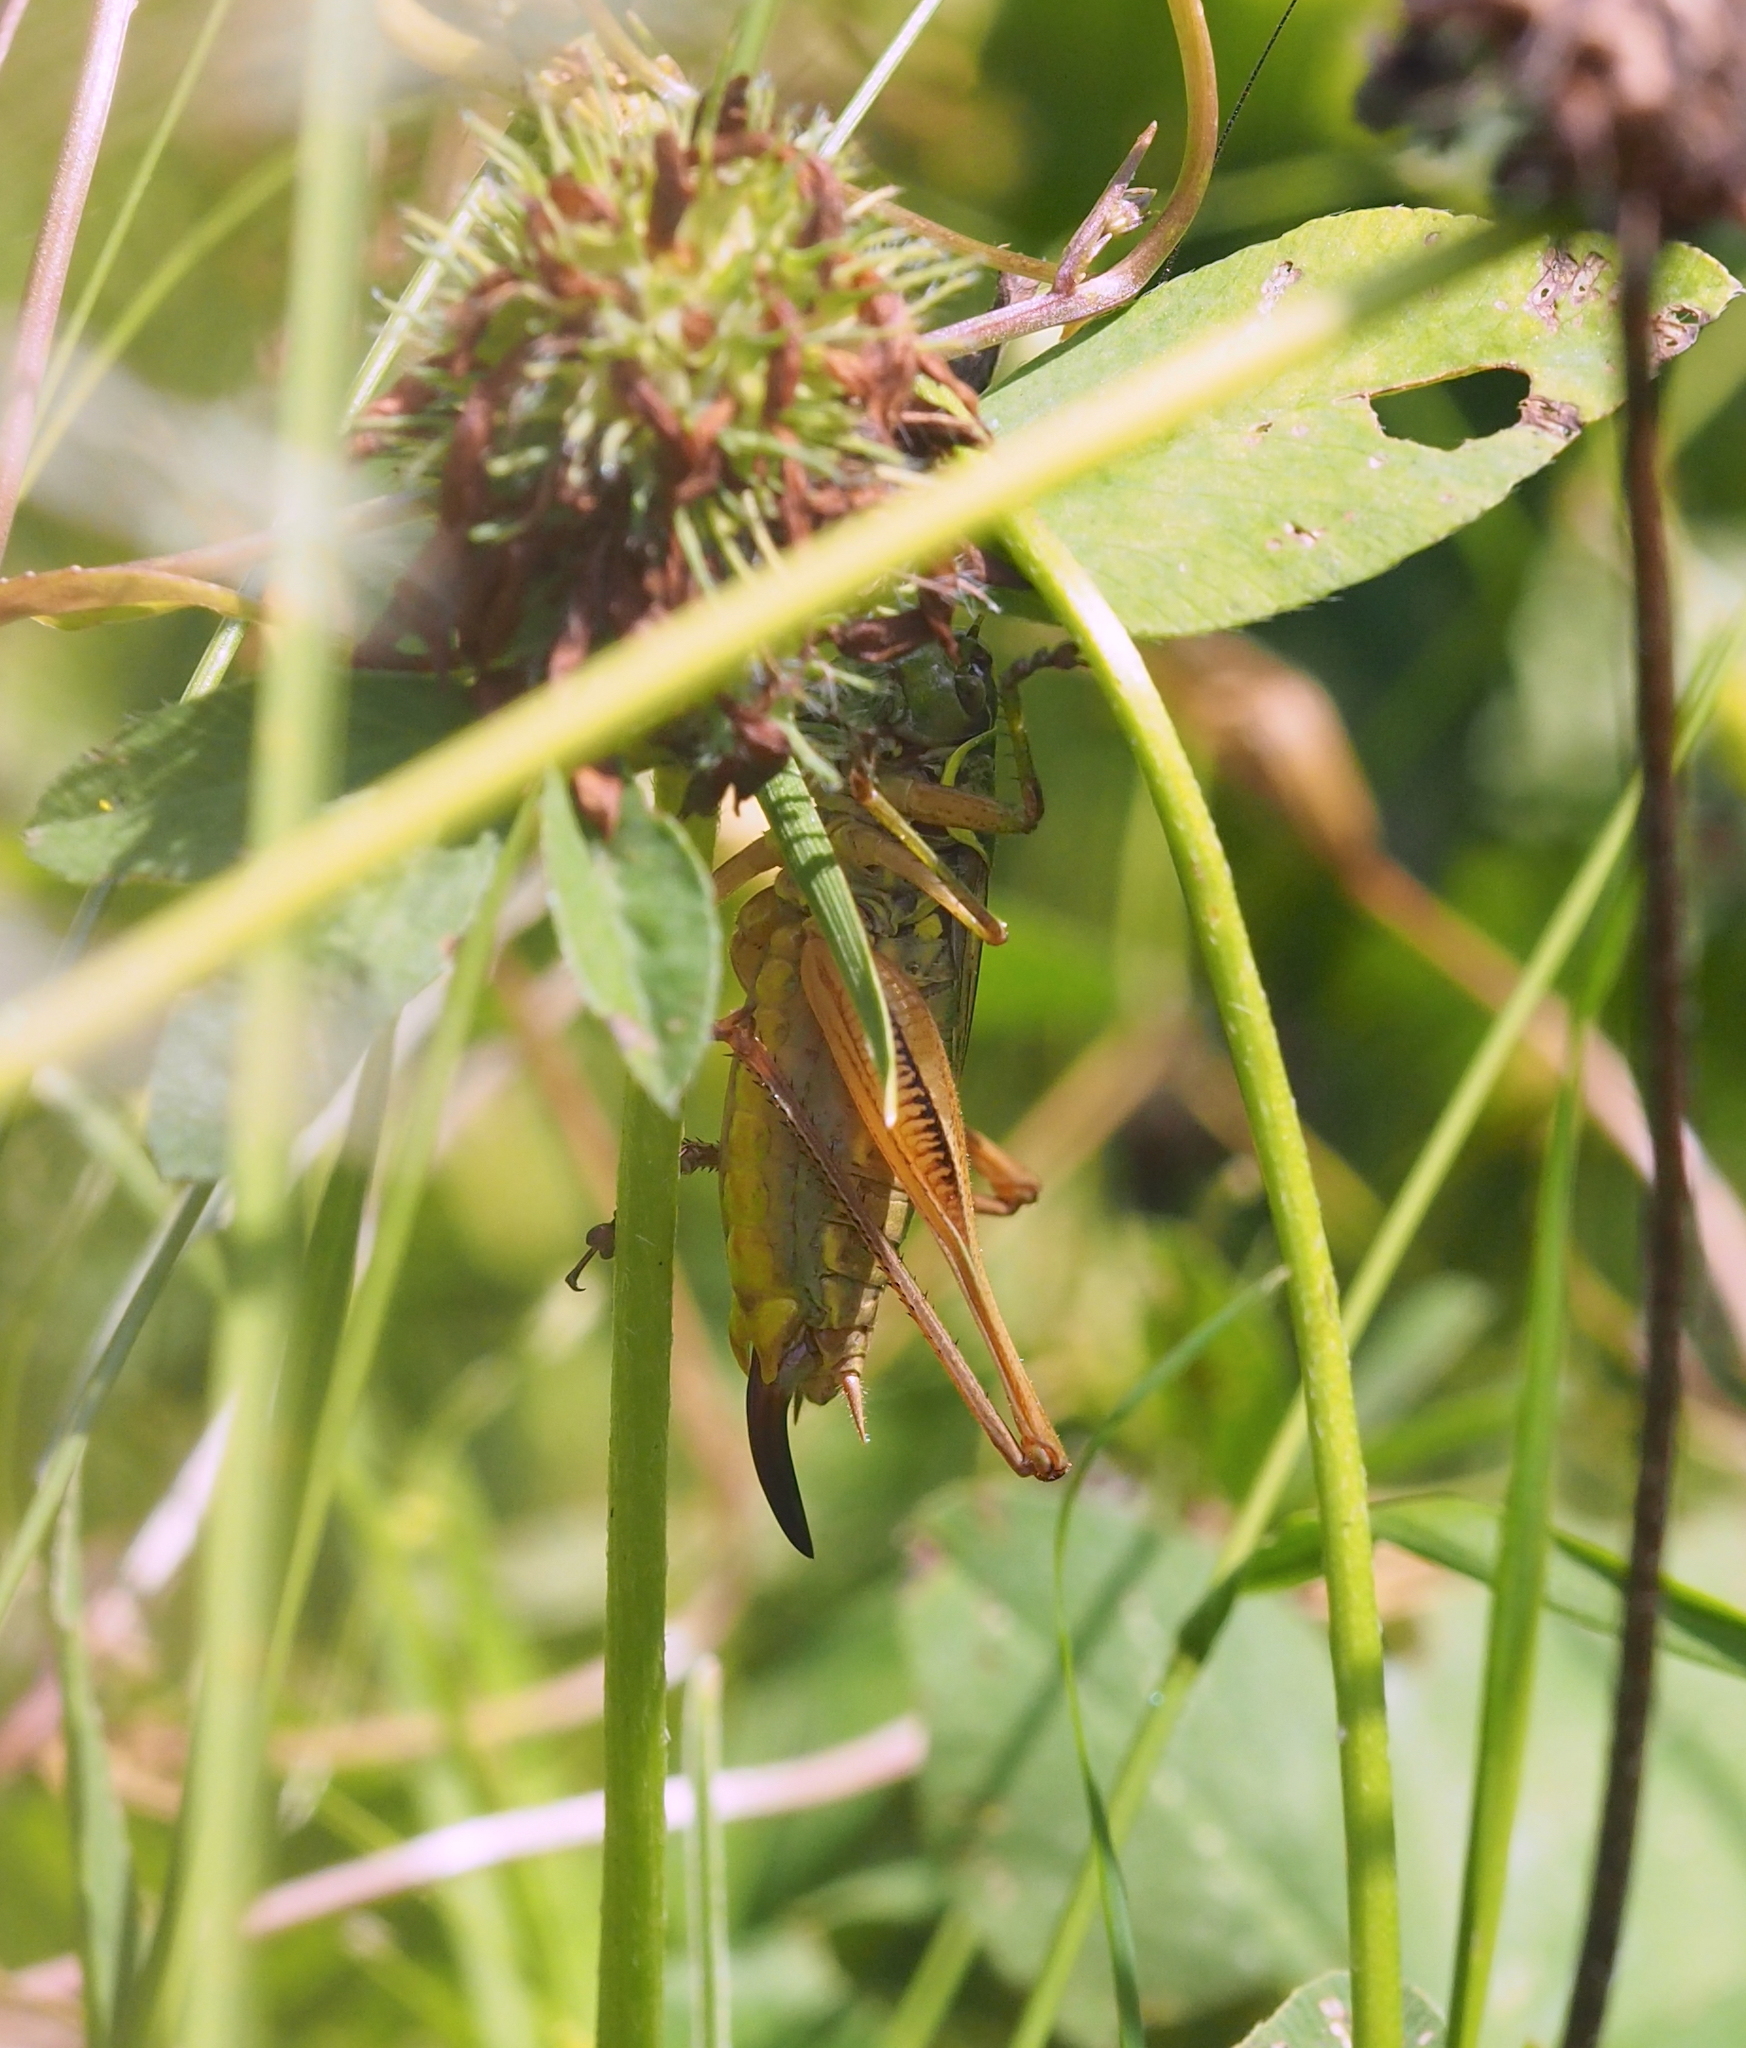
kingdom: Animalia
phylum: Arthropoda
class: Insecta
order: Orthoptera
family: Tettigoniidae
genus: Roeseliana
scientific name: Roeseliana roeselii
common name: Roesel's bush cricket
